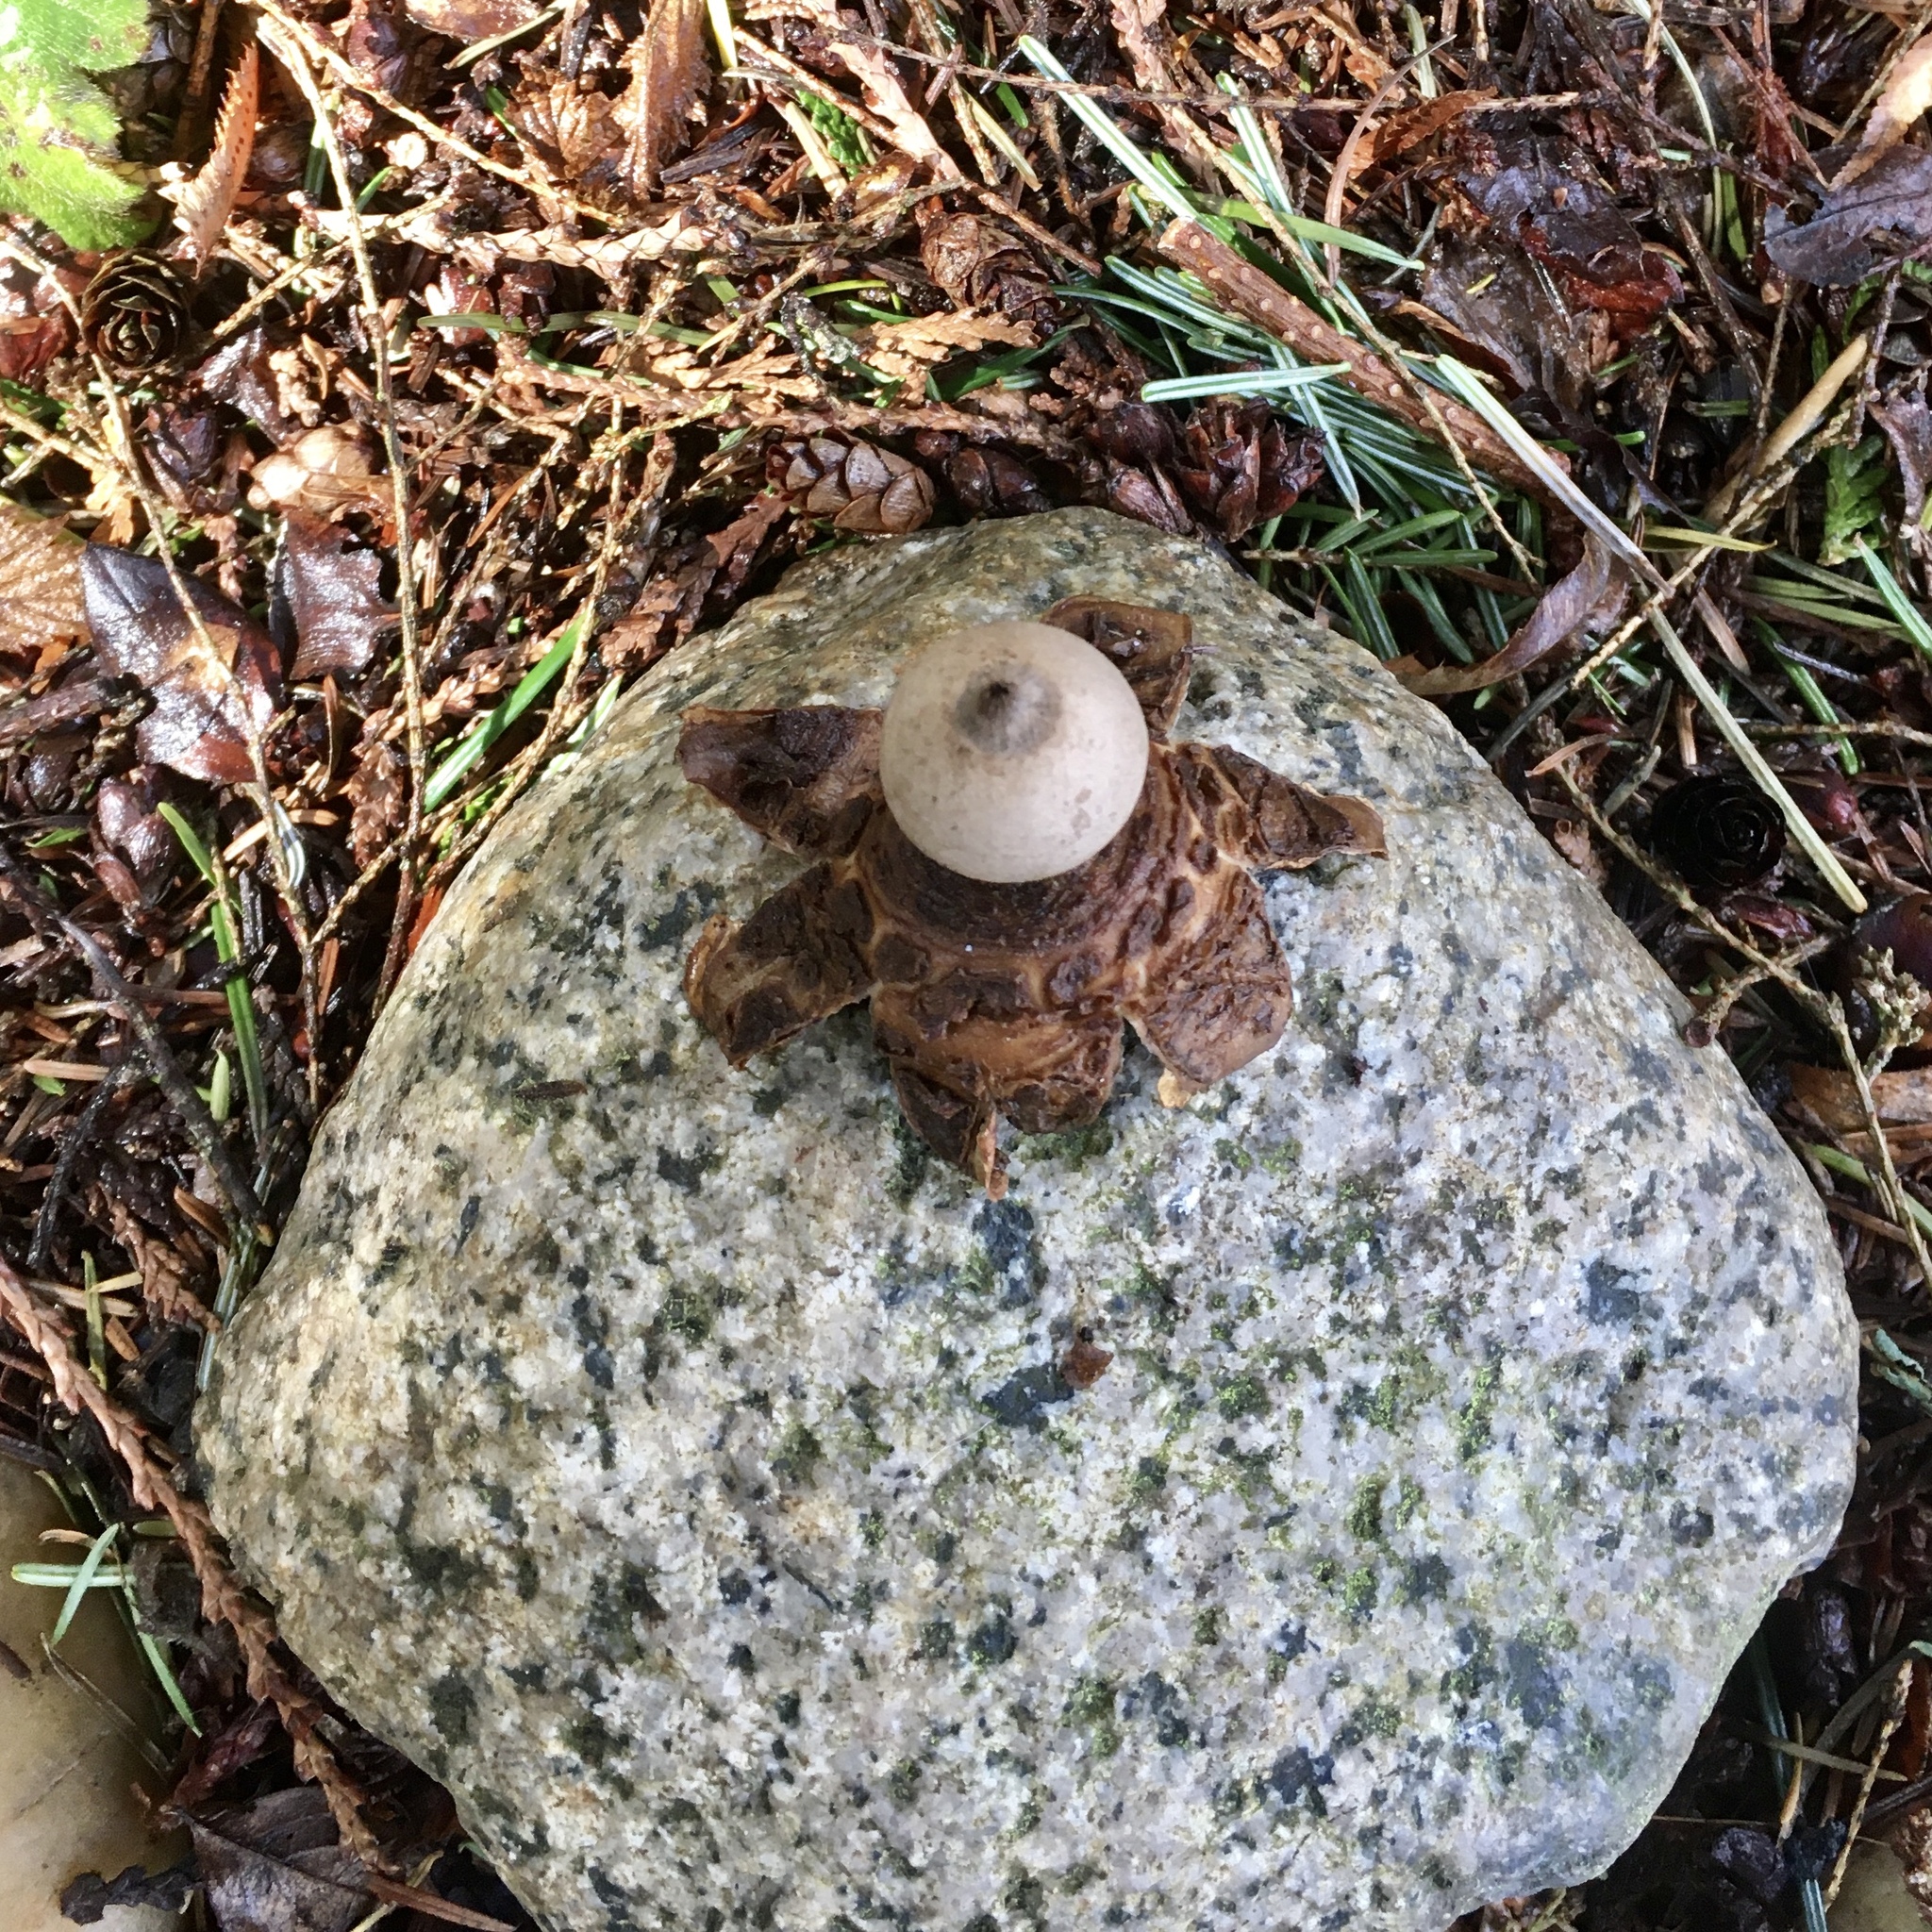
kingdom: Fungi
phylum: Basidiomycota
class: Agaricomycetes
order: Geastrales
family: Geastraceae
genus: Geastrum
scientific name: Geastrum saccatum
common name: Rounded earthstar
